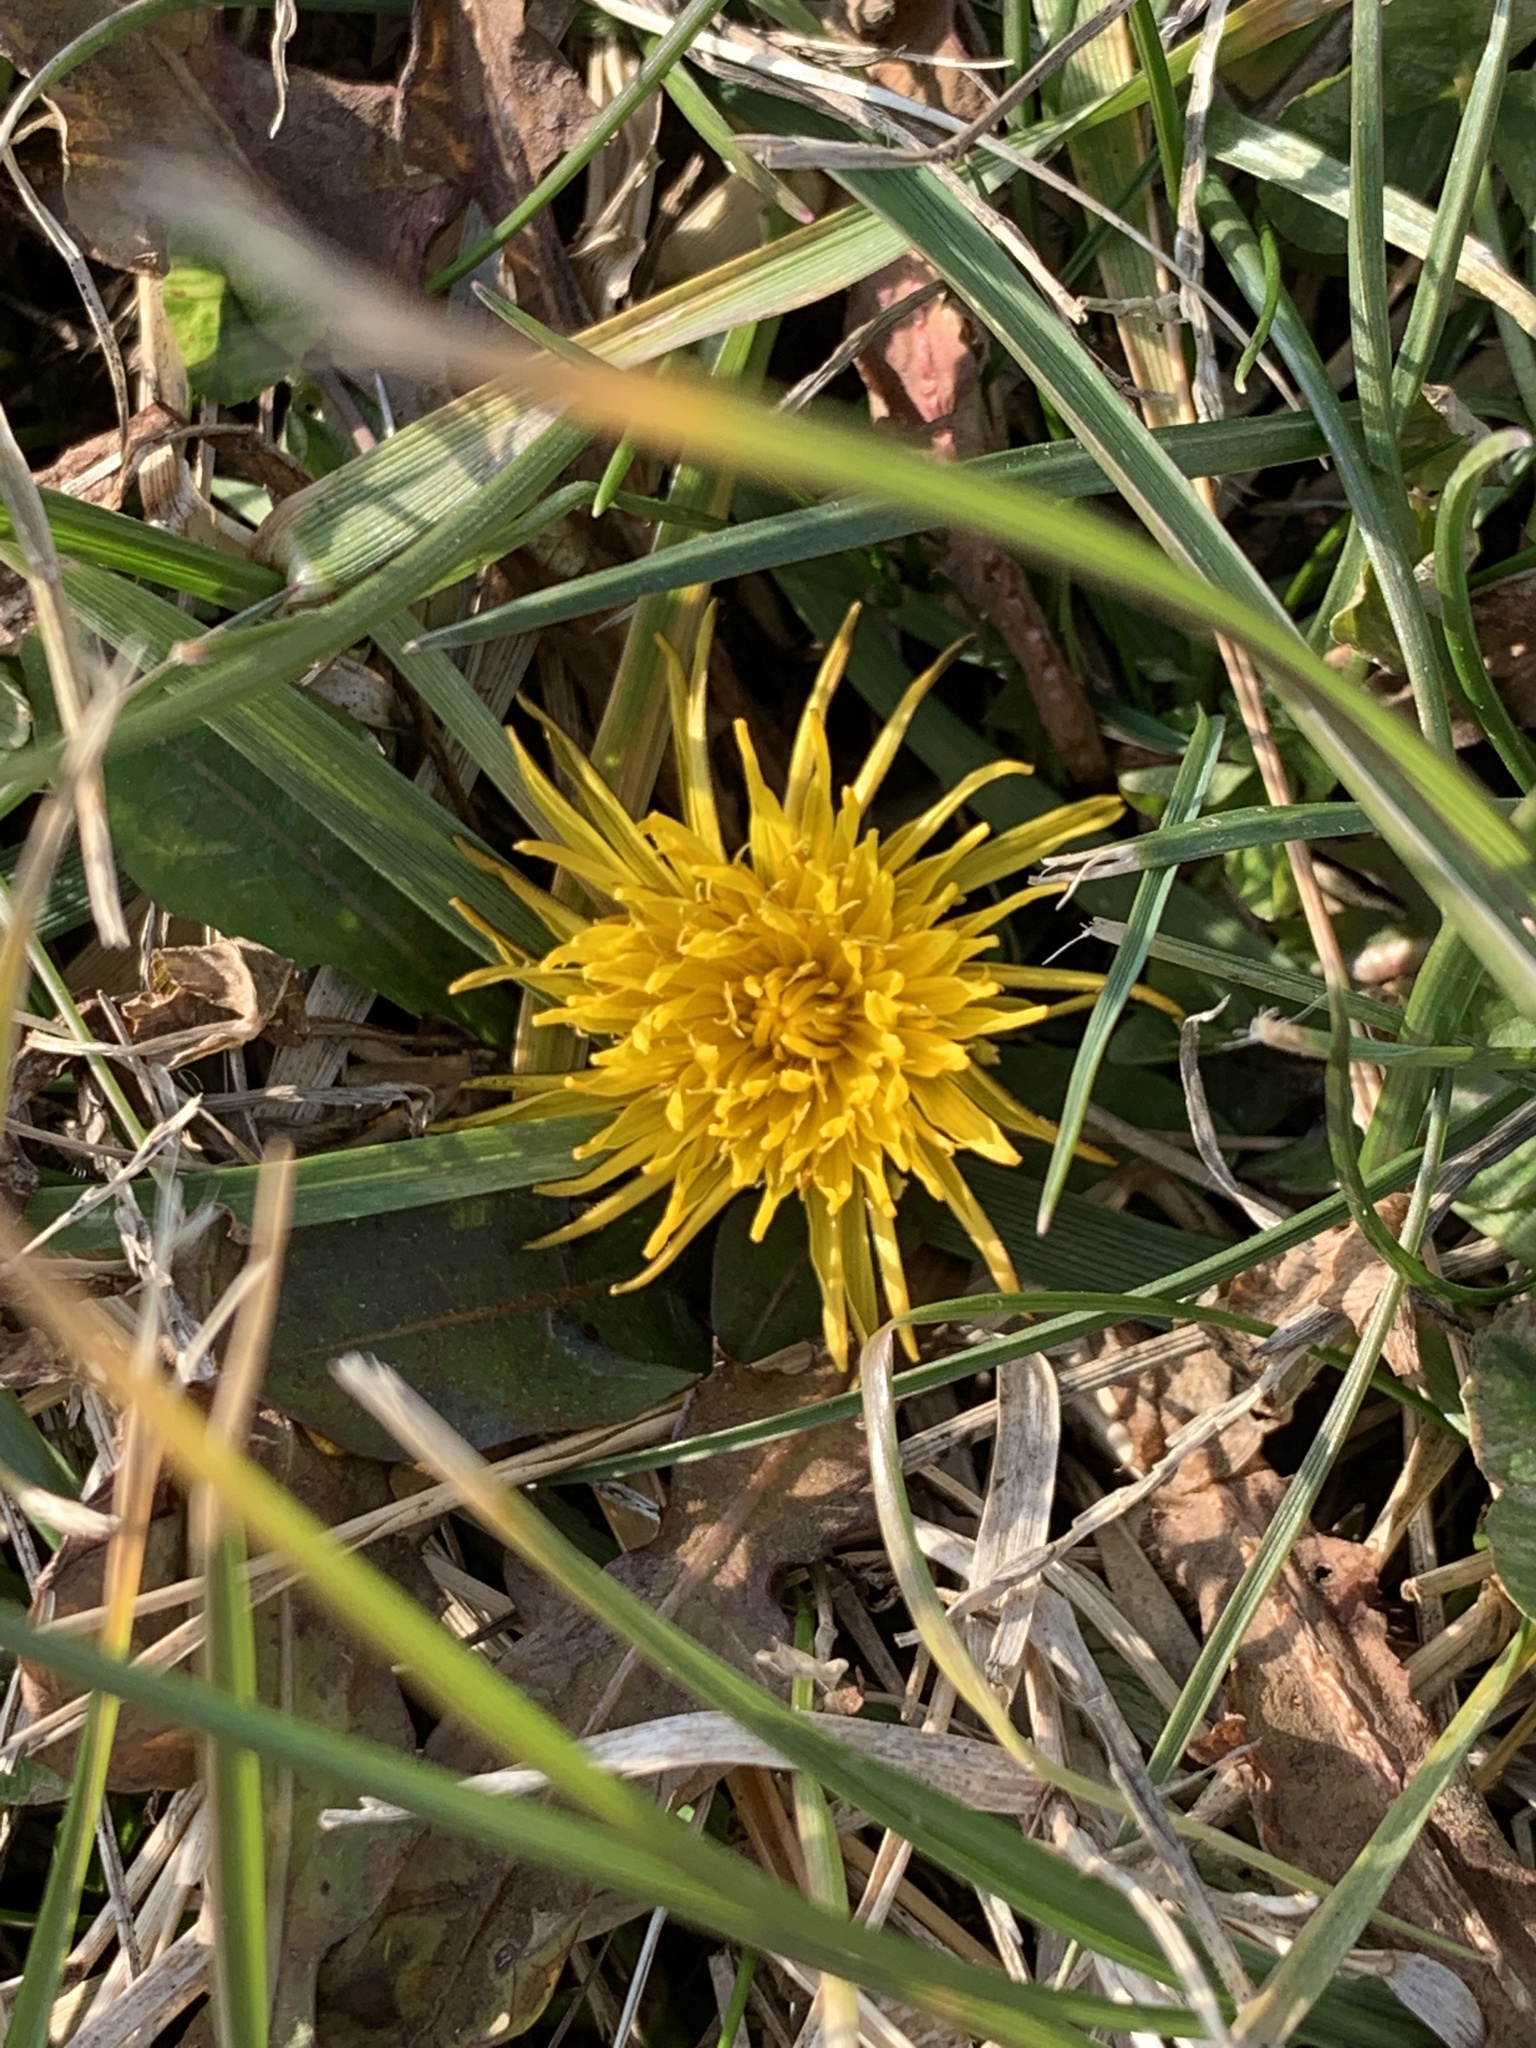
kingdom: Plantae
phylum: Tracheophyta
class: Magnoliopsida
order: Asterales
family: Asteraceae
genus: Taraxacum
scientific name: Taraxacum officinale
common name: Common dandelion
